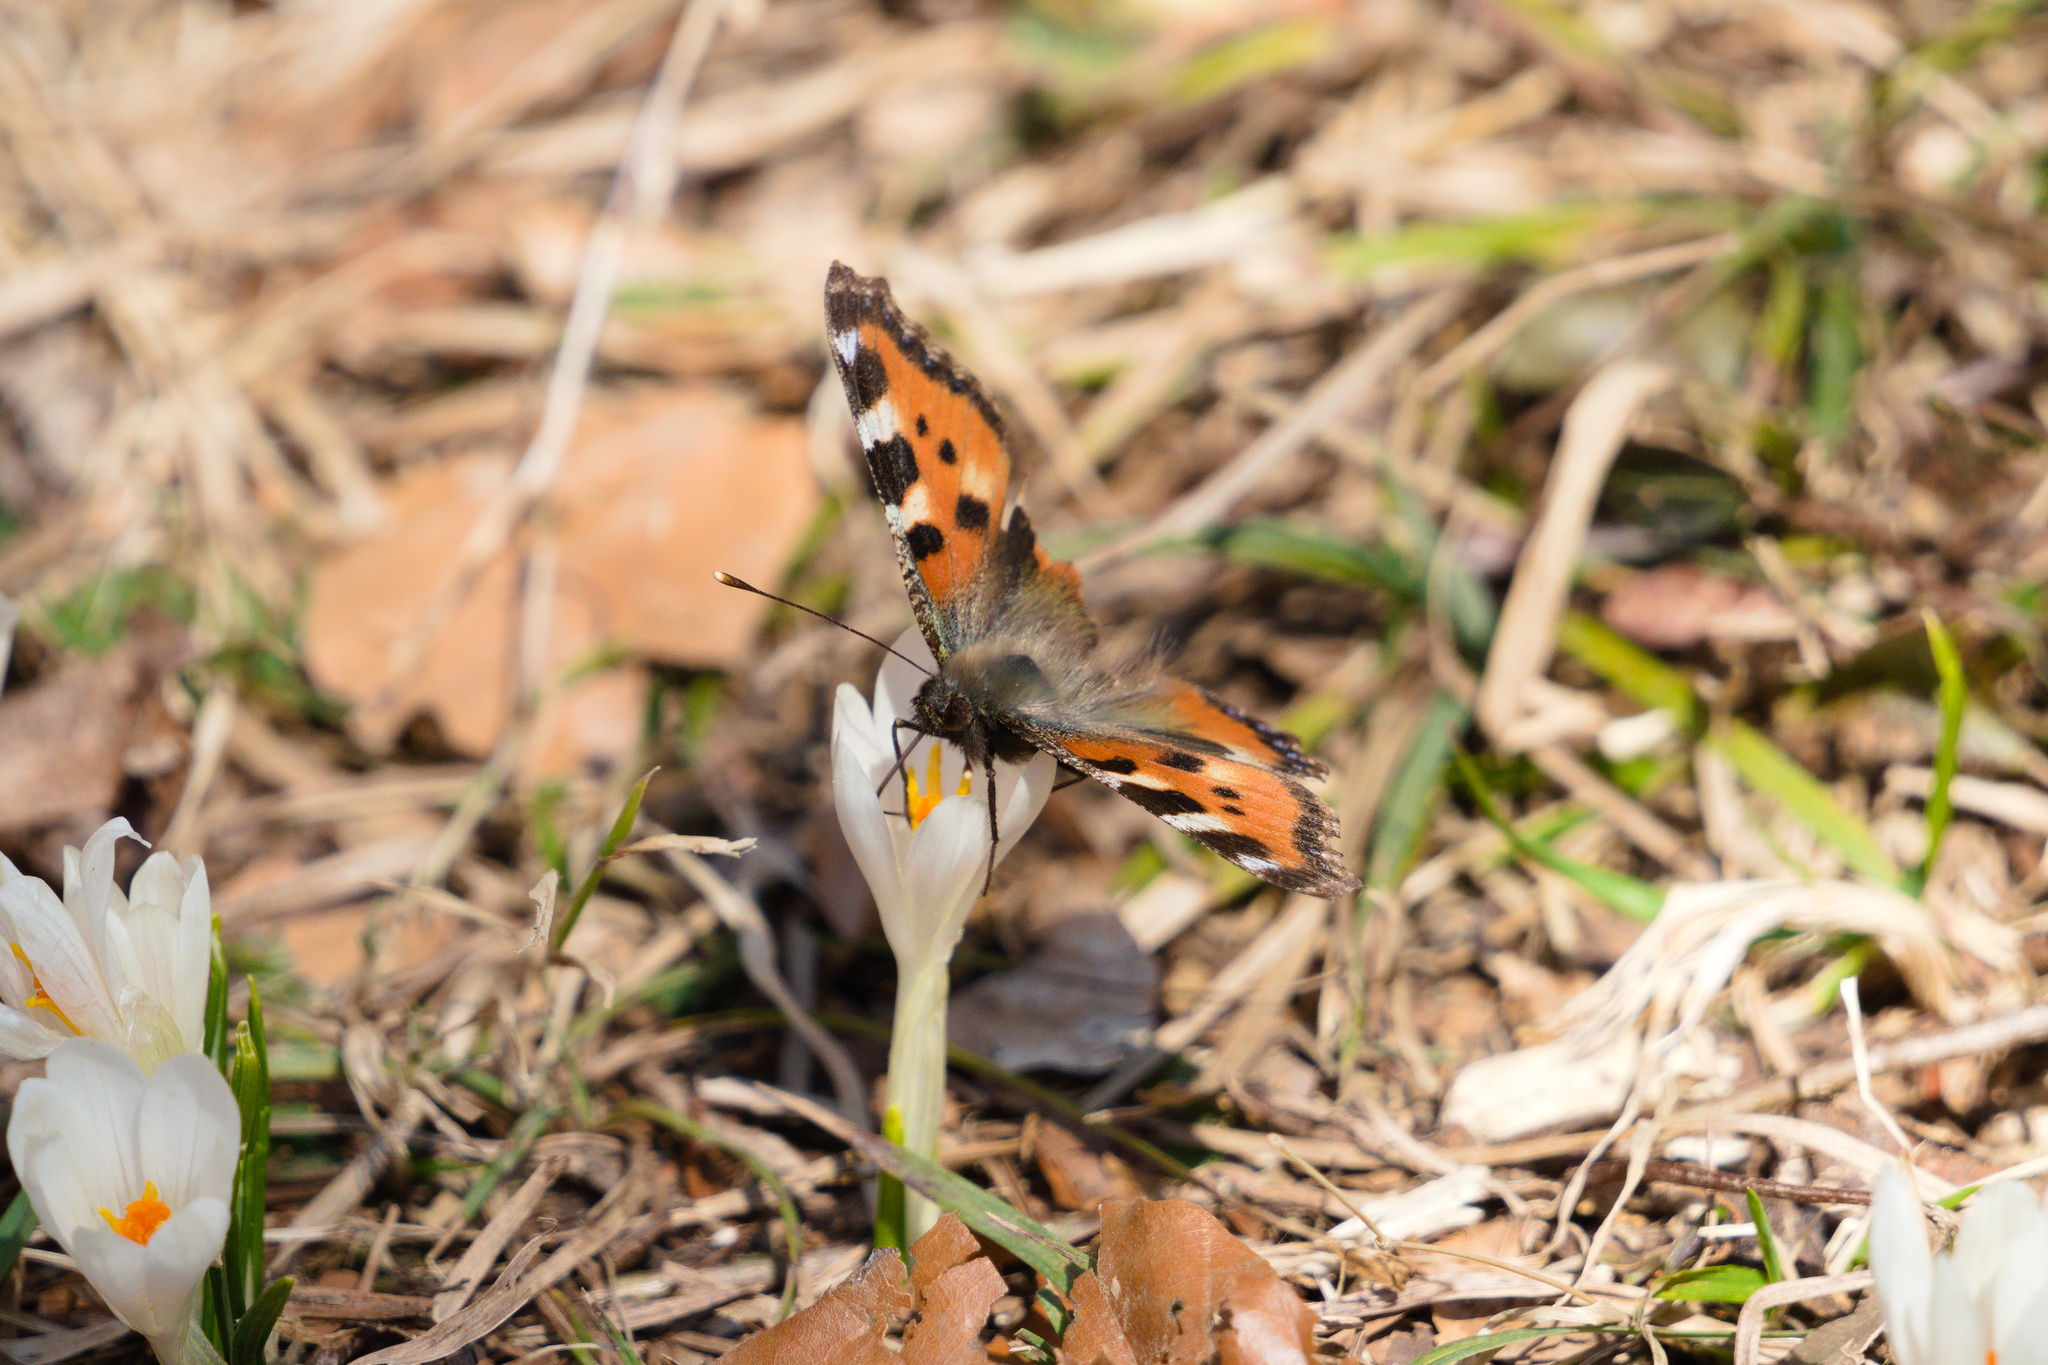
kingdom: Animalia
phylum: Arthropoda
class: Insecta
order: Lepidoptera
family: Nymphalidae
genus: Aglais
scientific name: Aglais urticae
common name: Small tortoiseshell
